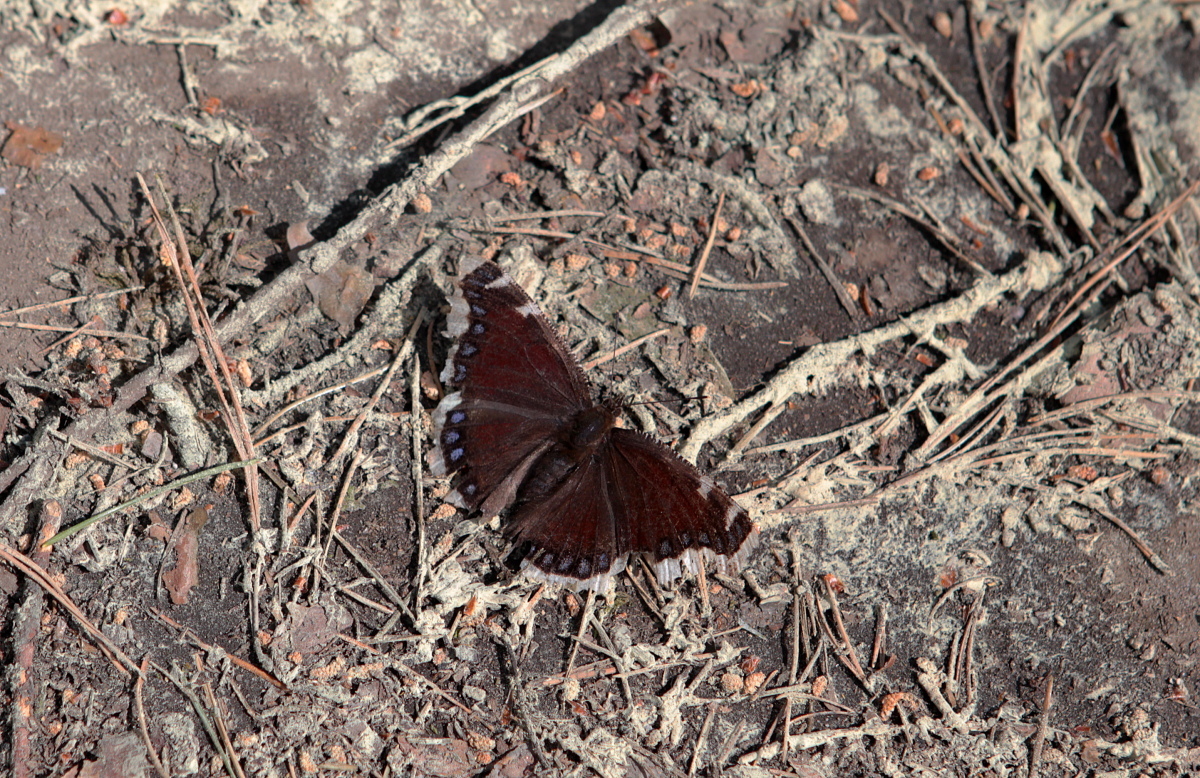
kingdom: Animalia
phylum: Arthropoda
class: Insecta
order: Lepidoptera
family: Nymphalidae
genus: Nymphalis
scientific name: Nymphalis antiopa
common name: Camberwell beauty
